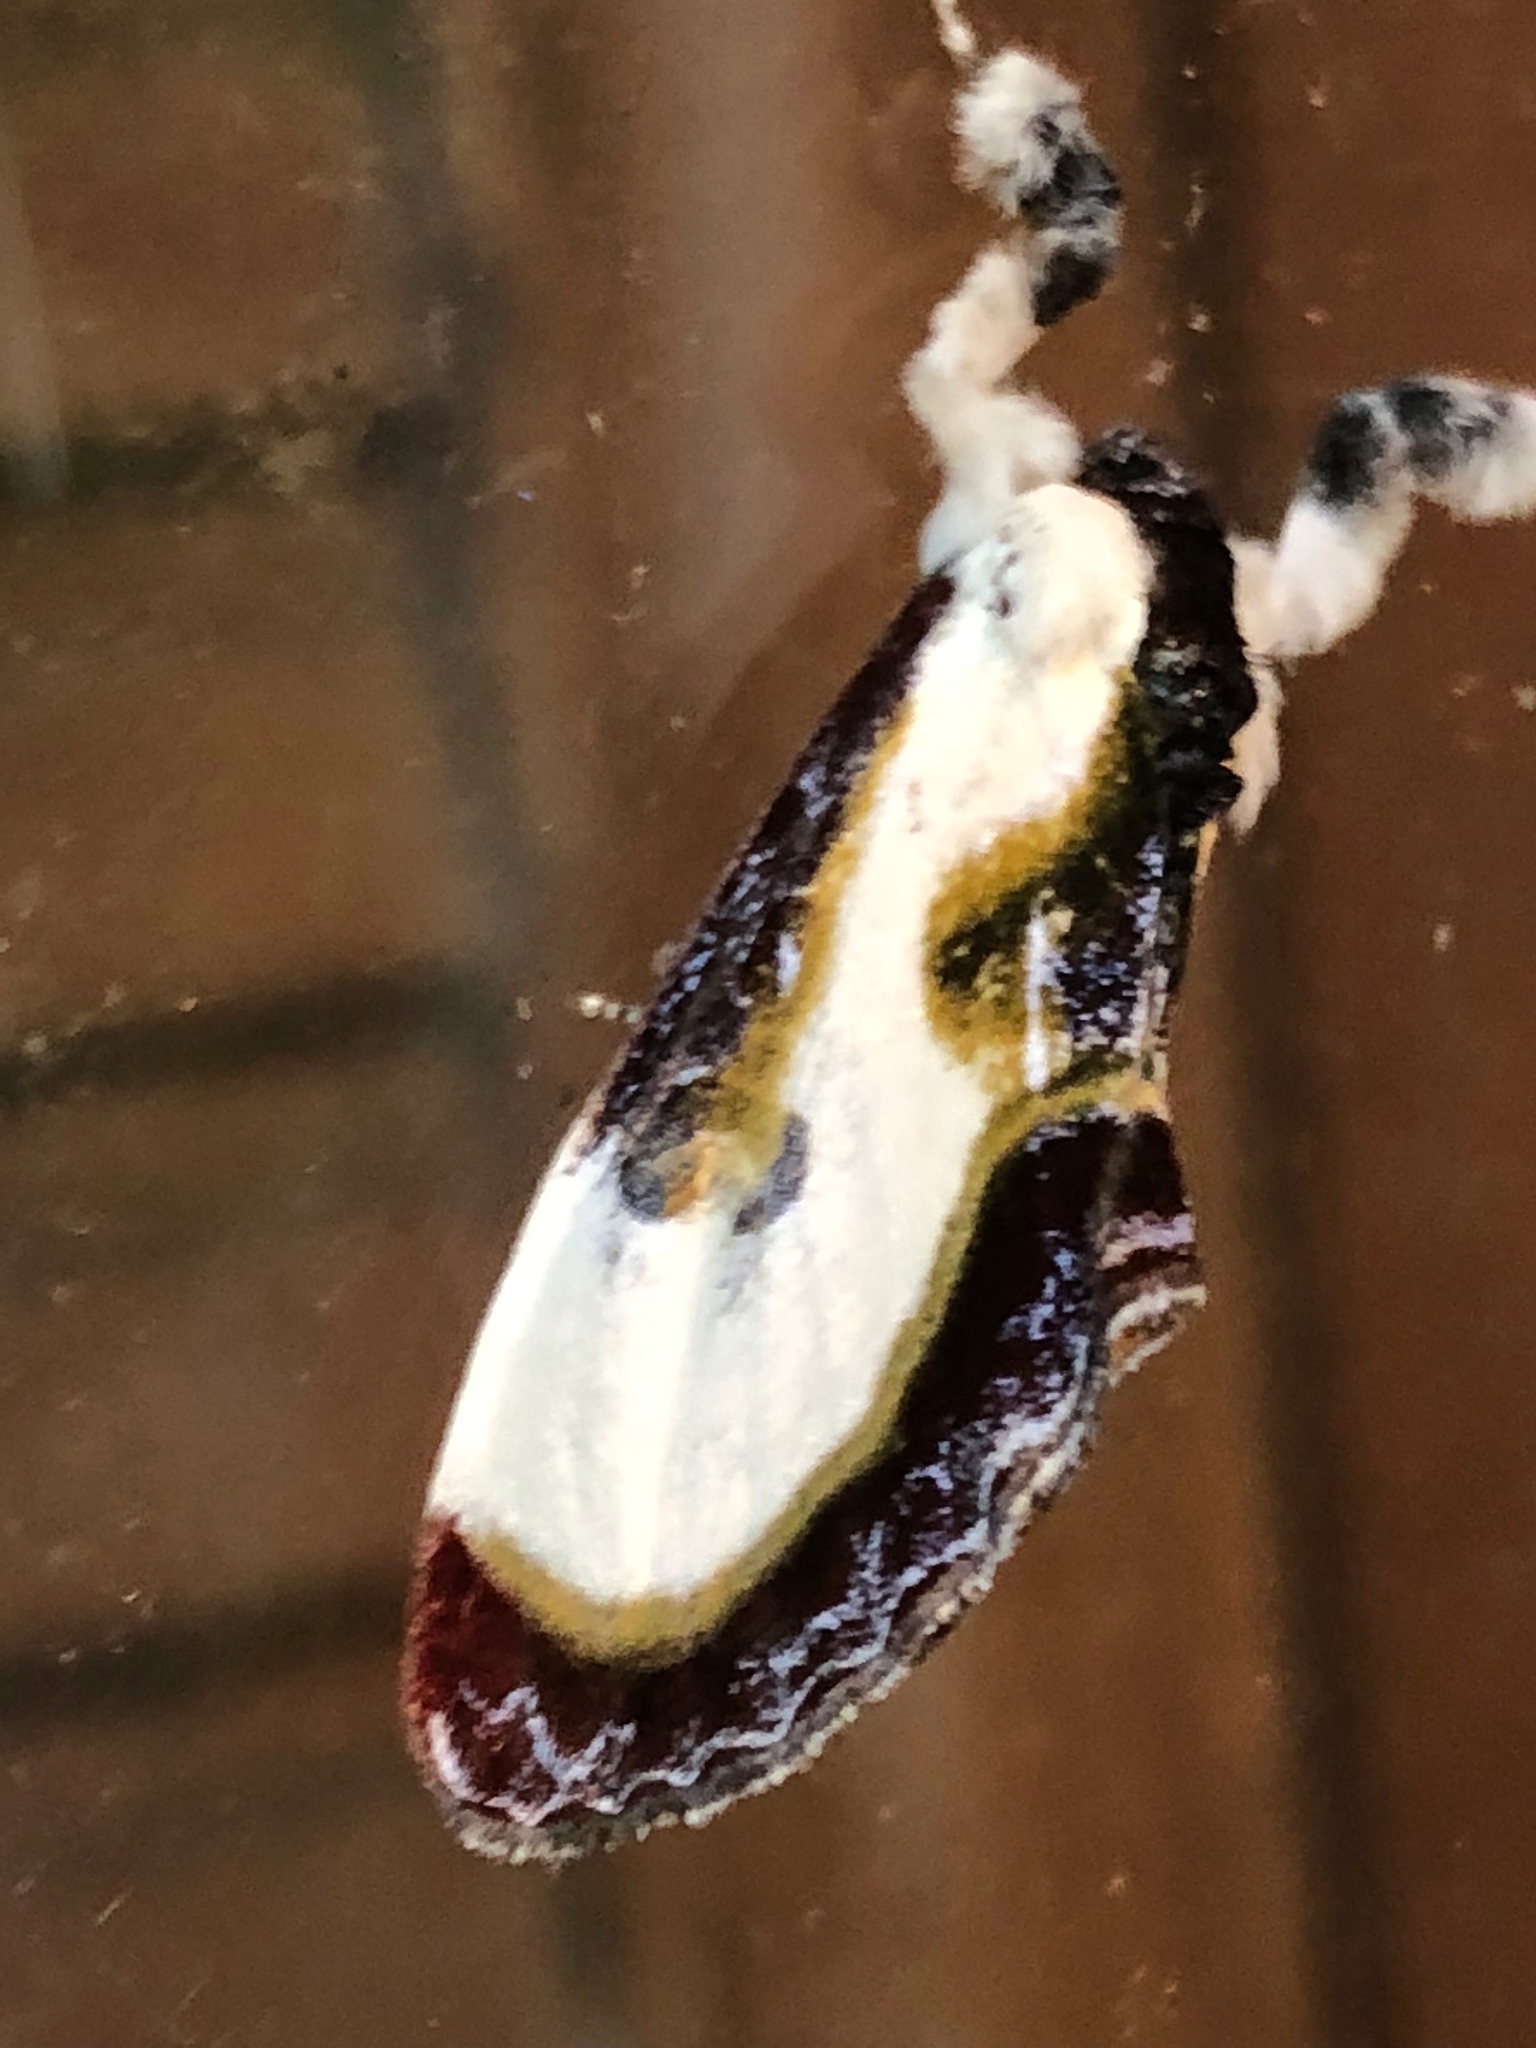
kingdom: Animalia
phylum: Arthropoda
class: Insecta
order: Lepidoptera
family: Noctuidae
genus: Eudryas
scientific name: Eudryas grata
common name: Beautiful wood-nymph
